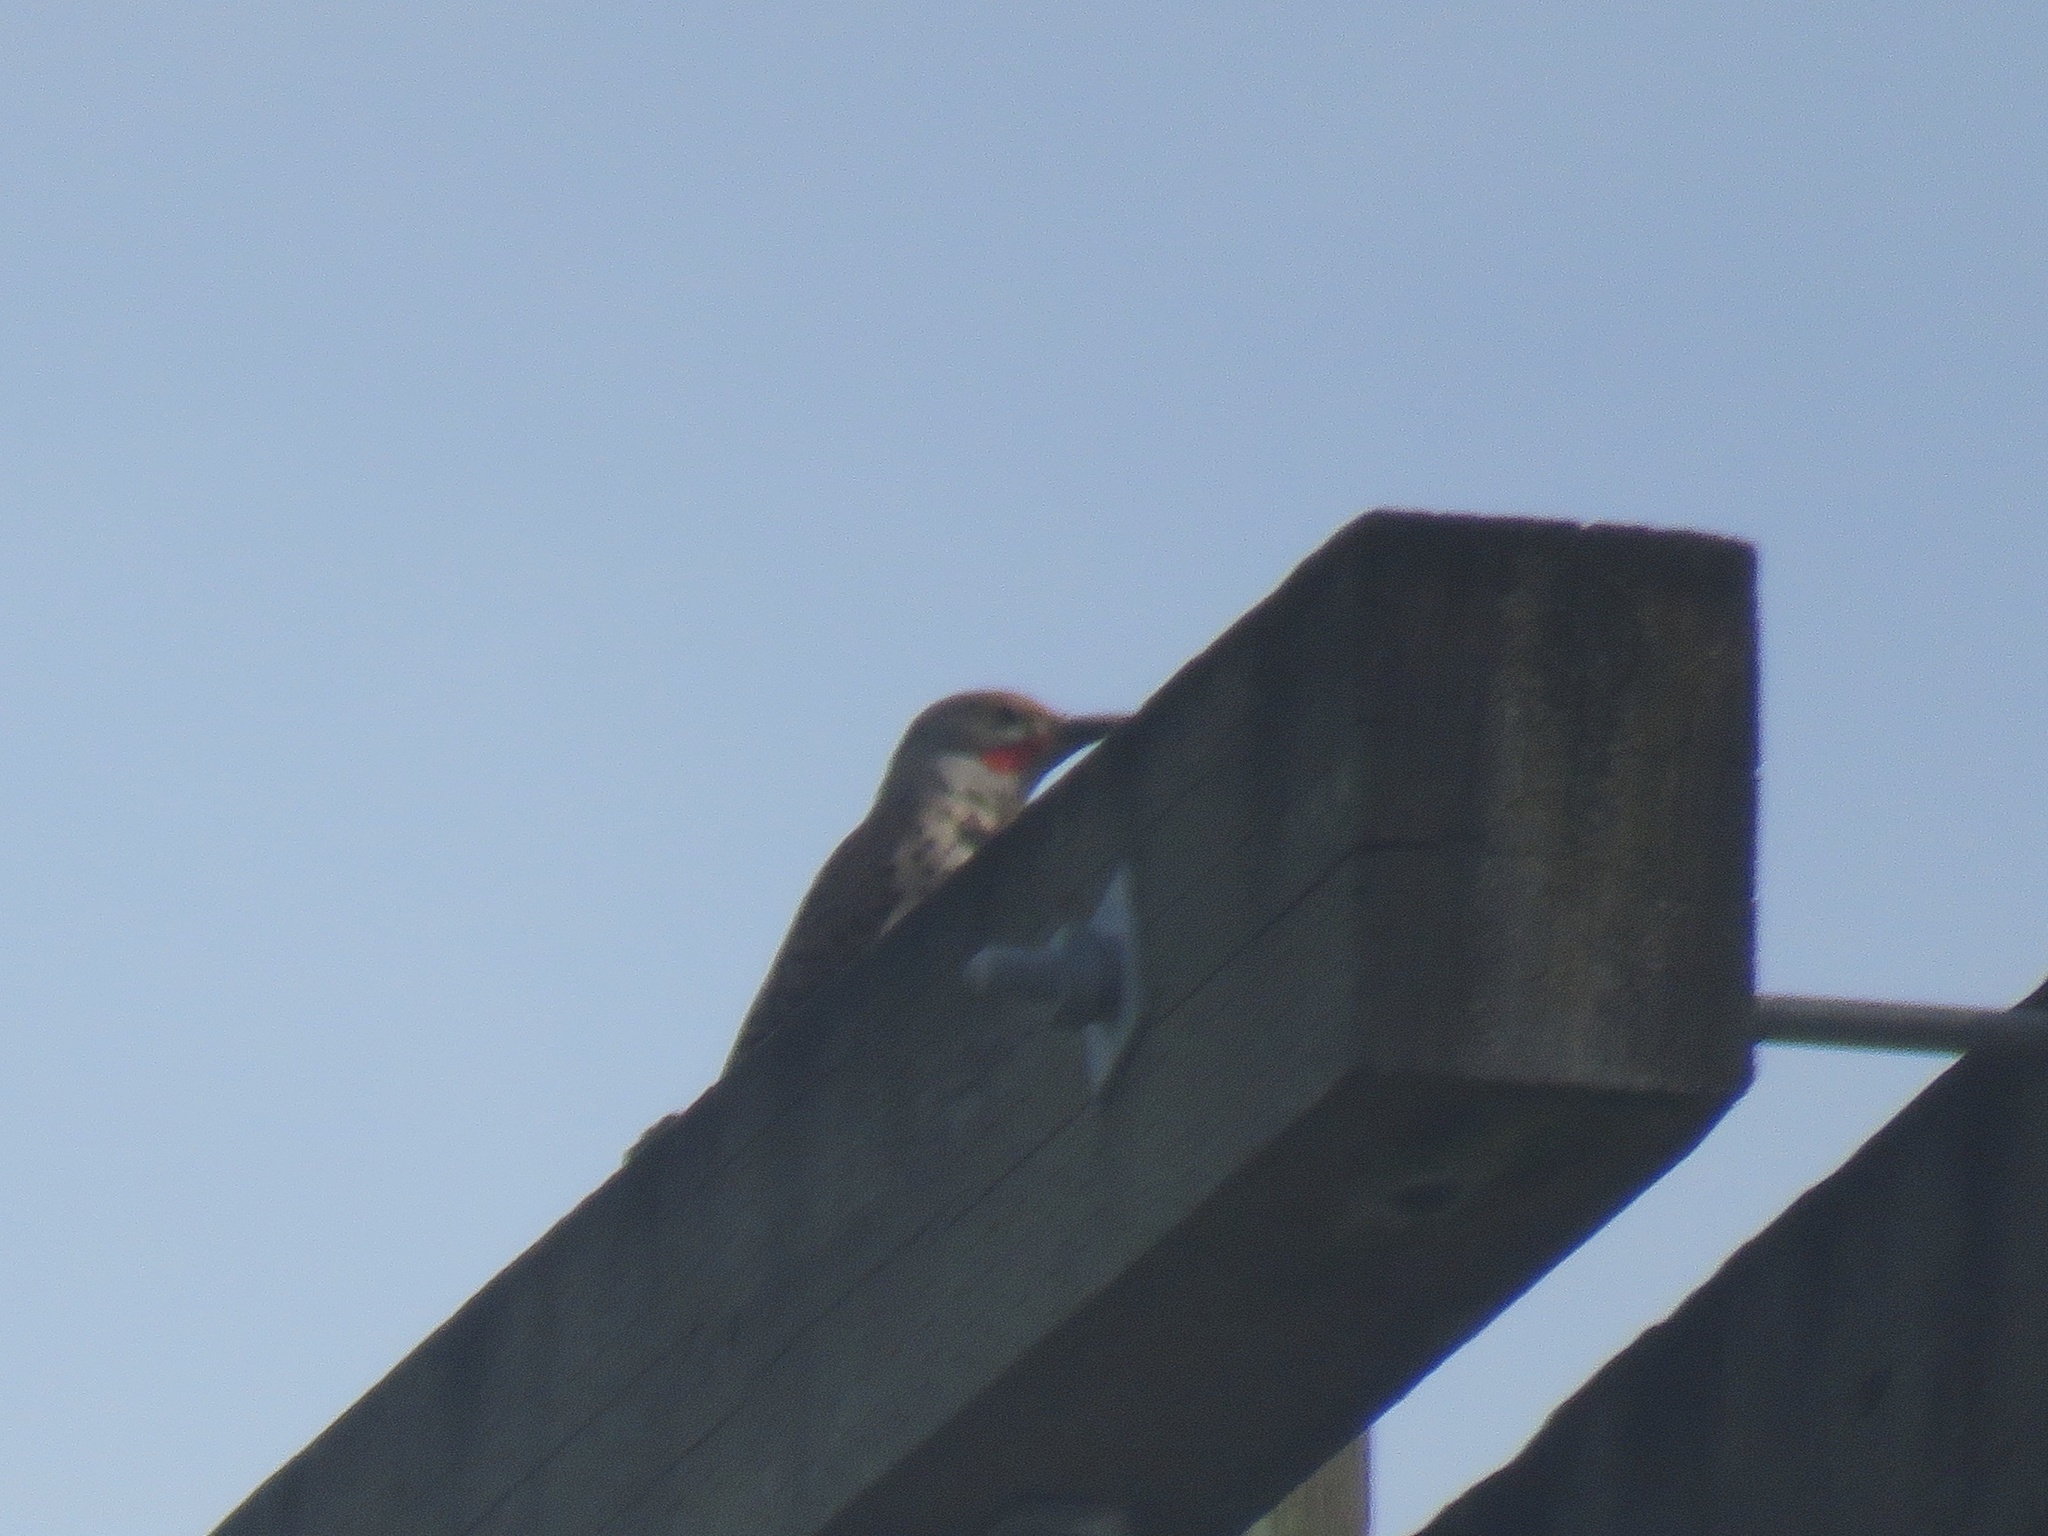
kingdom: Animalia
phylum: Chordata
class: Aves
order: Piciformes
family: Picidae
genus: Colaptes
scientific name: Colaptes auratus
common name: Northern flicker
